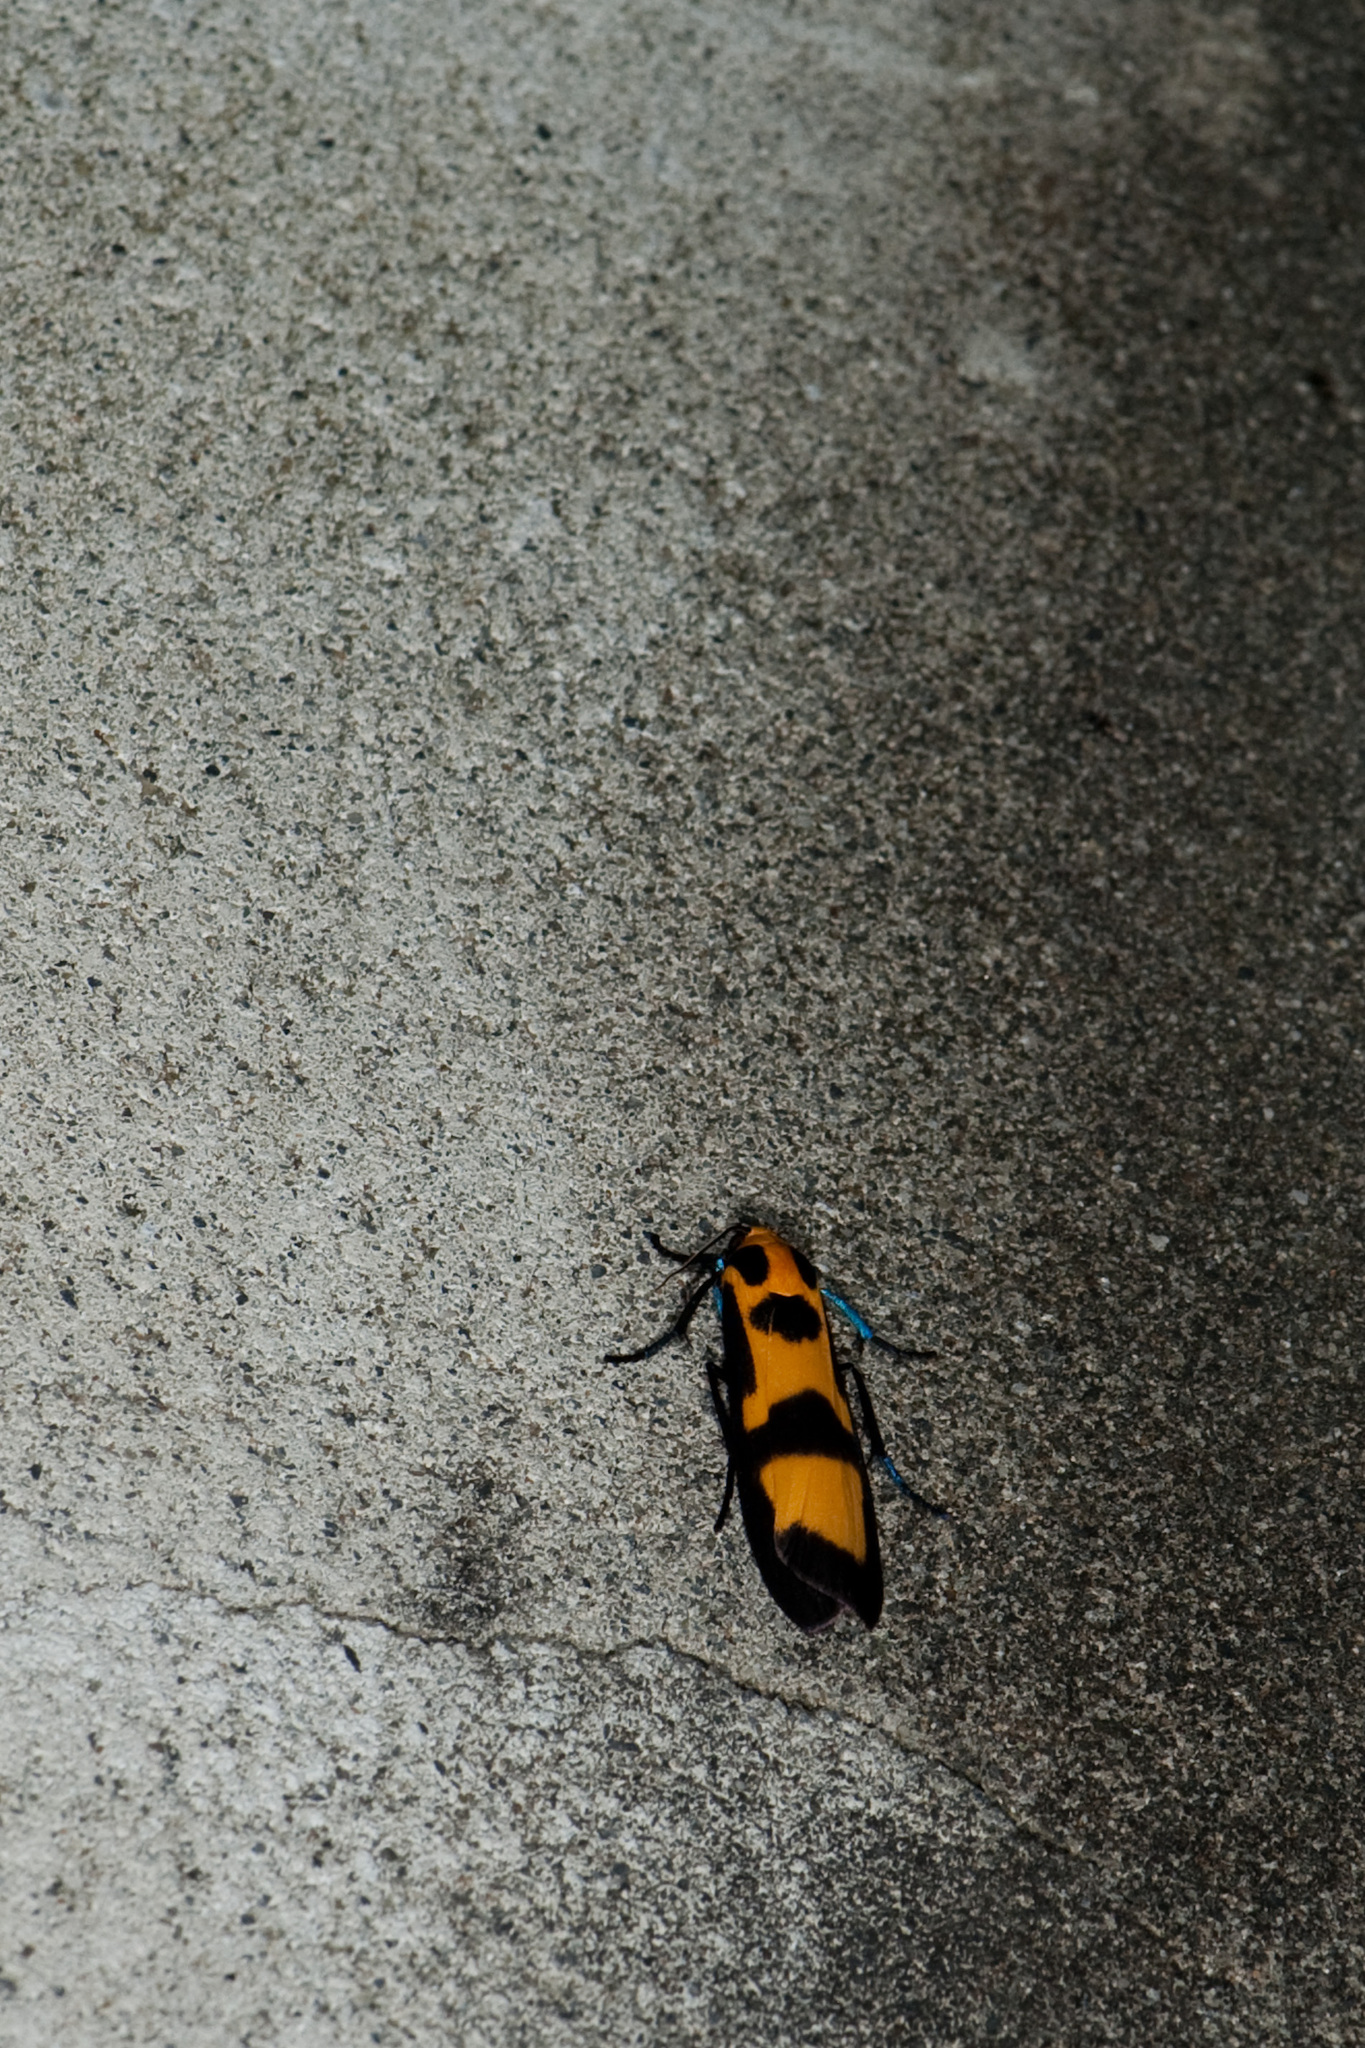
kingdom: Animalia
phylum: Arthropoda
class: Insecta
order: Lepidoptera
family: Erebidae
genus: Chrysaeglia
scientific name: Chrysaeglia magnifica
